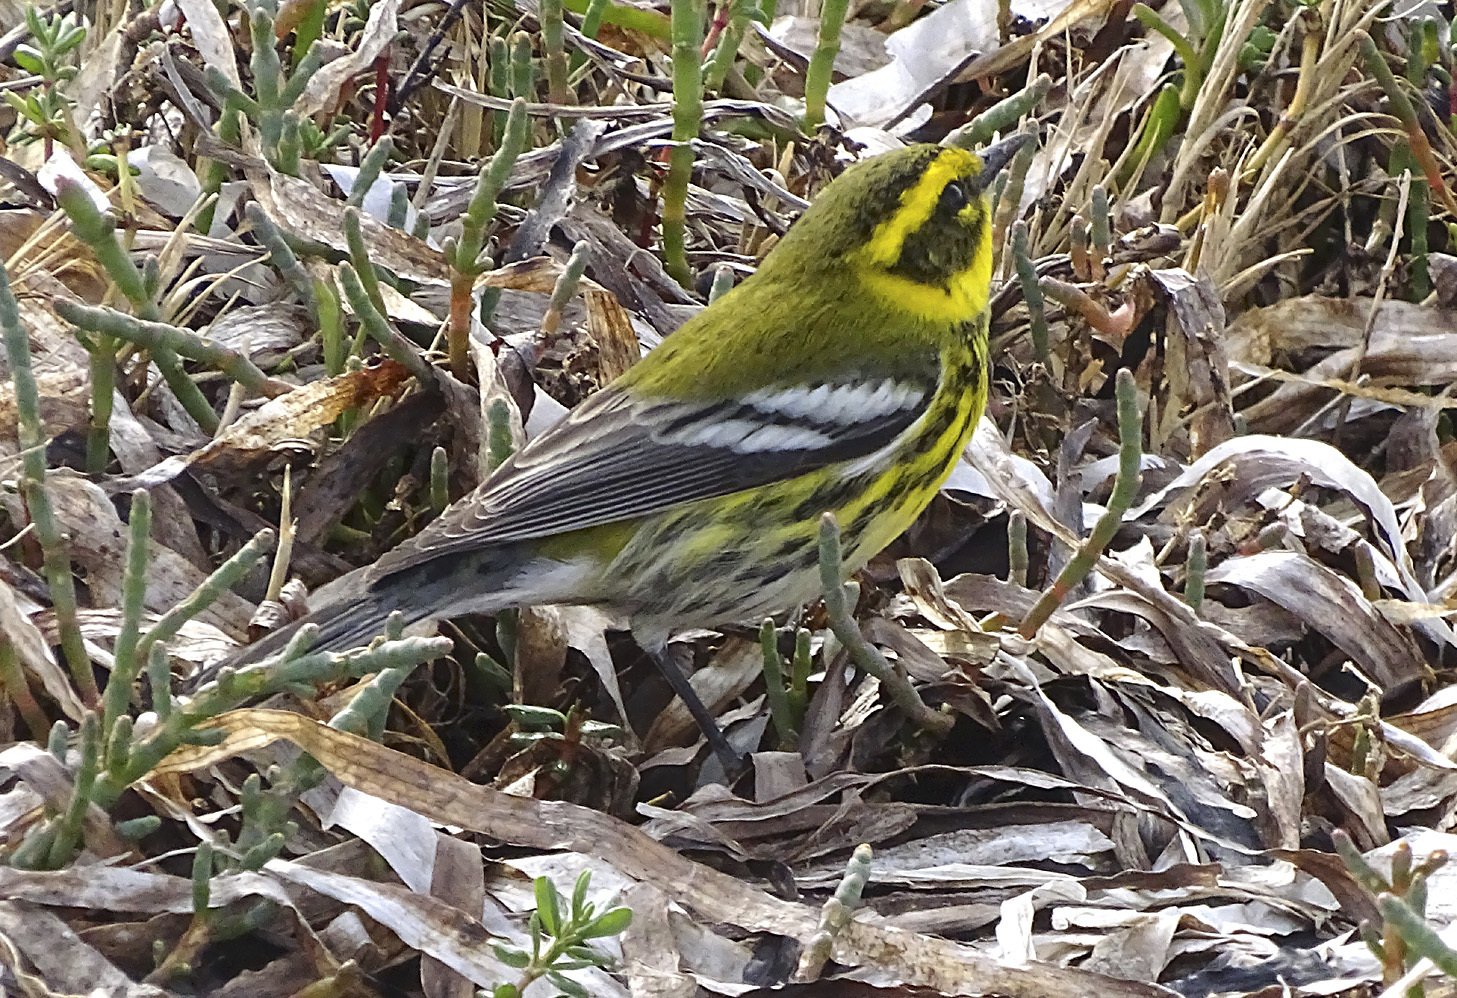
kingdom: Animalia
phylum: Chordata
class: Aves
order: Passeriformes
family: Parulidae
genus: Setophaga
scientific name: Setophaga townsendi
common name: Townsend's warbler
